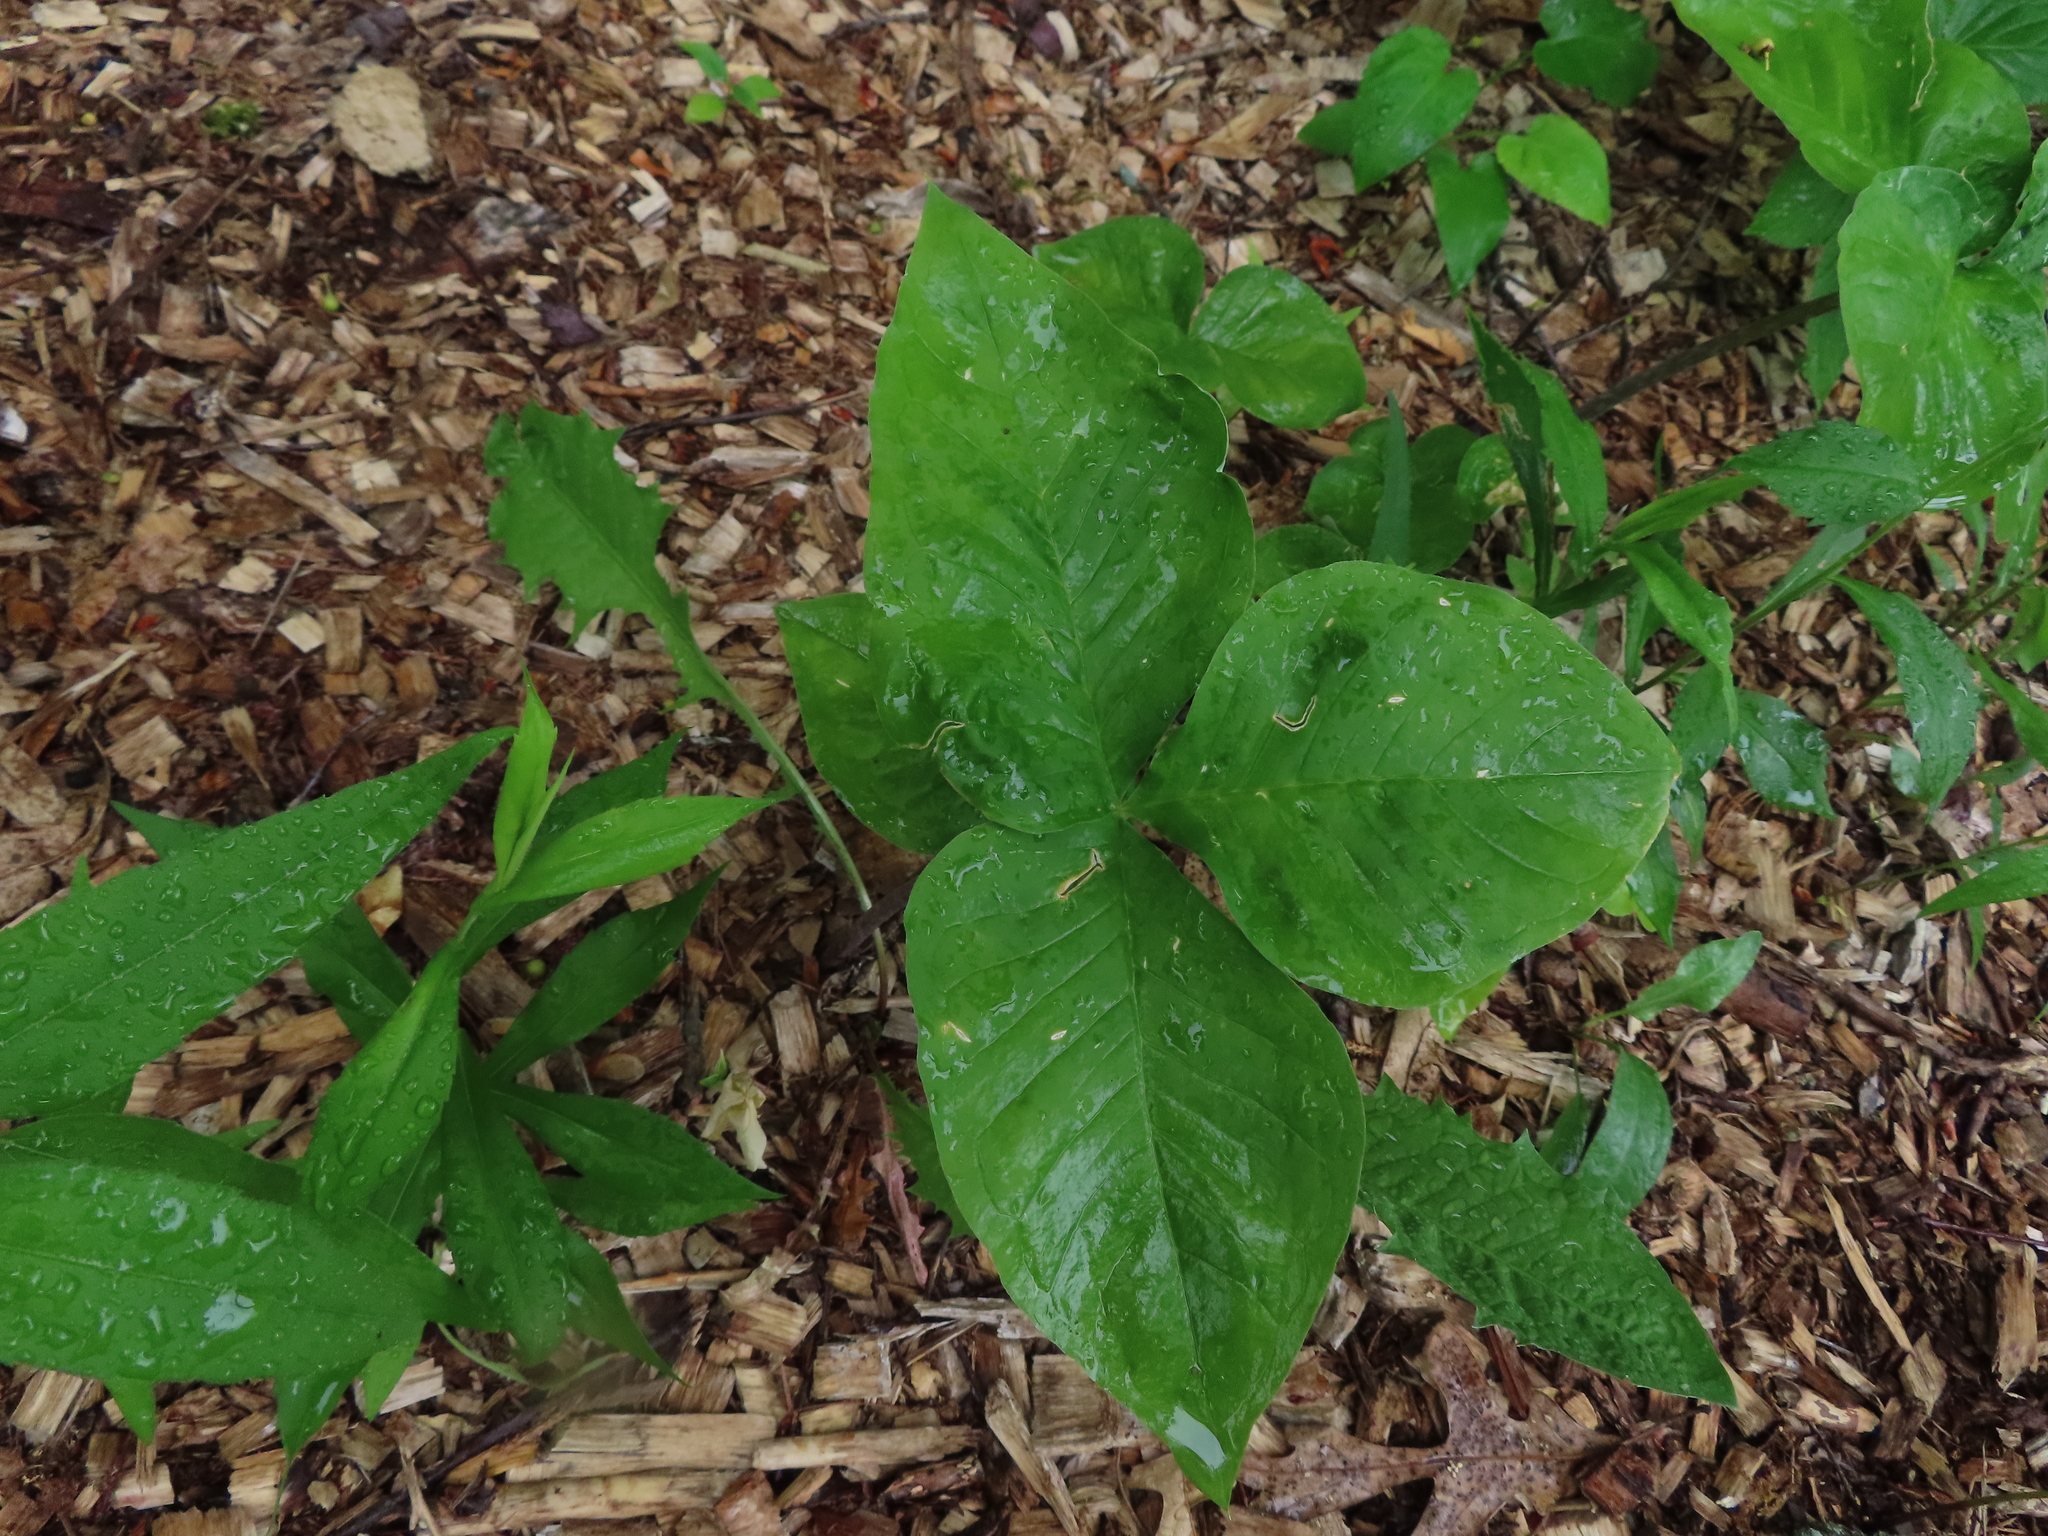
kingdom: Plantae
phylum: Tracheophyta
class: Liliopsida
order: Alismatales
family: Araceae
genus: Arisaema
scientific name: Arisaema triphyllum
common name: Jack-in-the-pulpit
